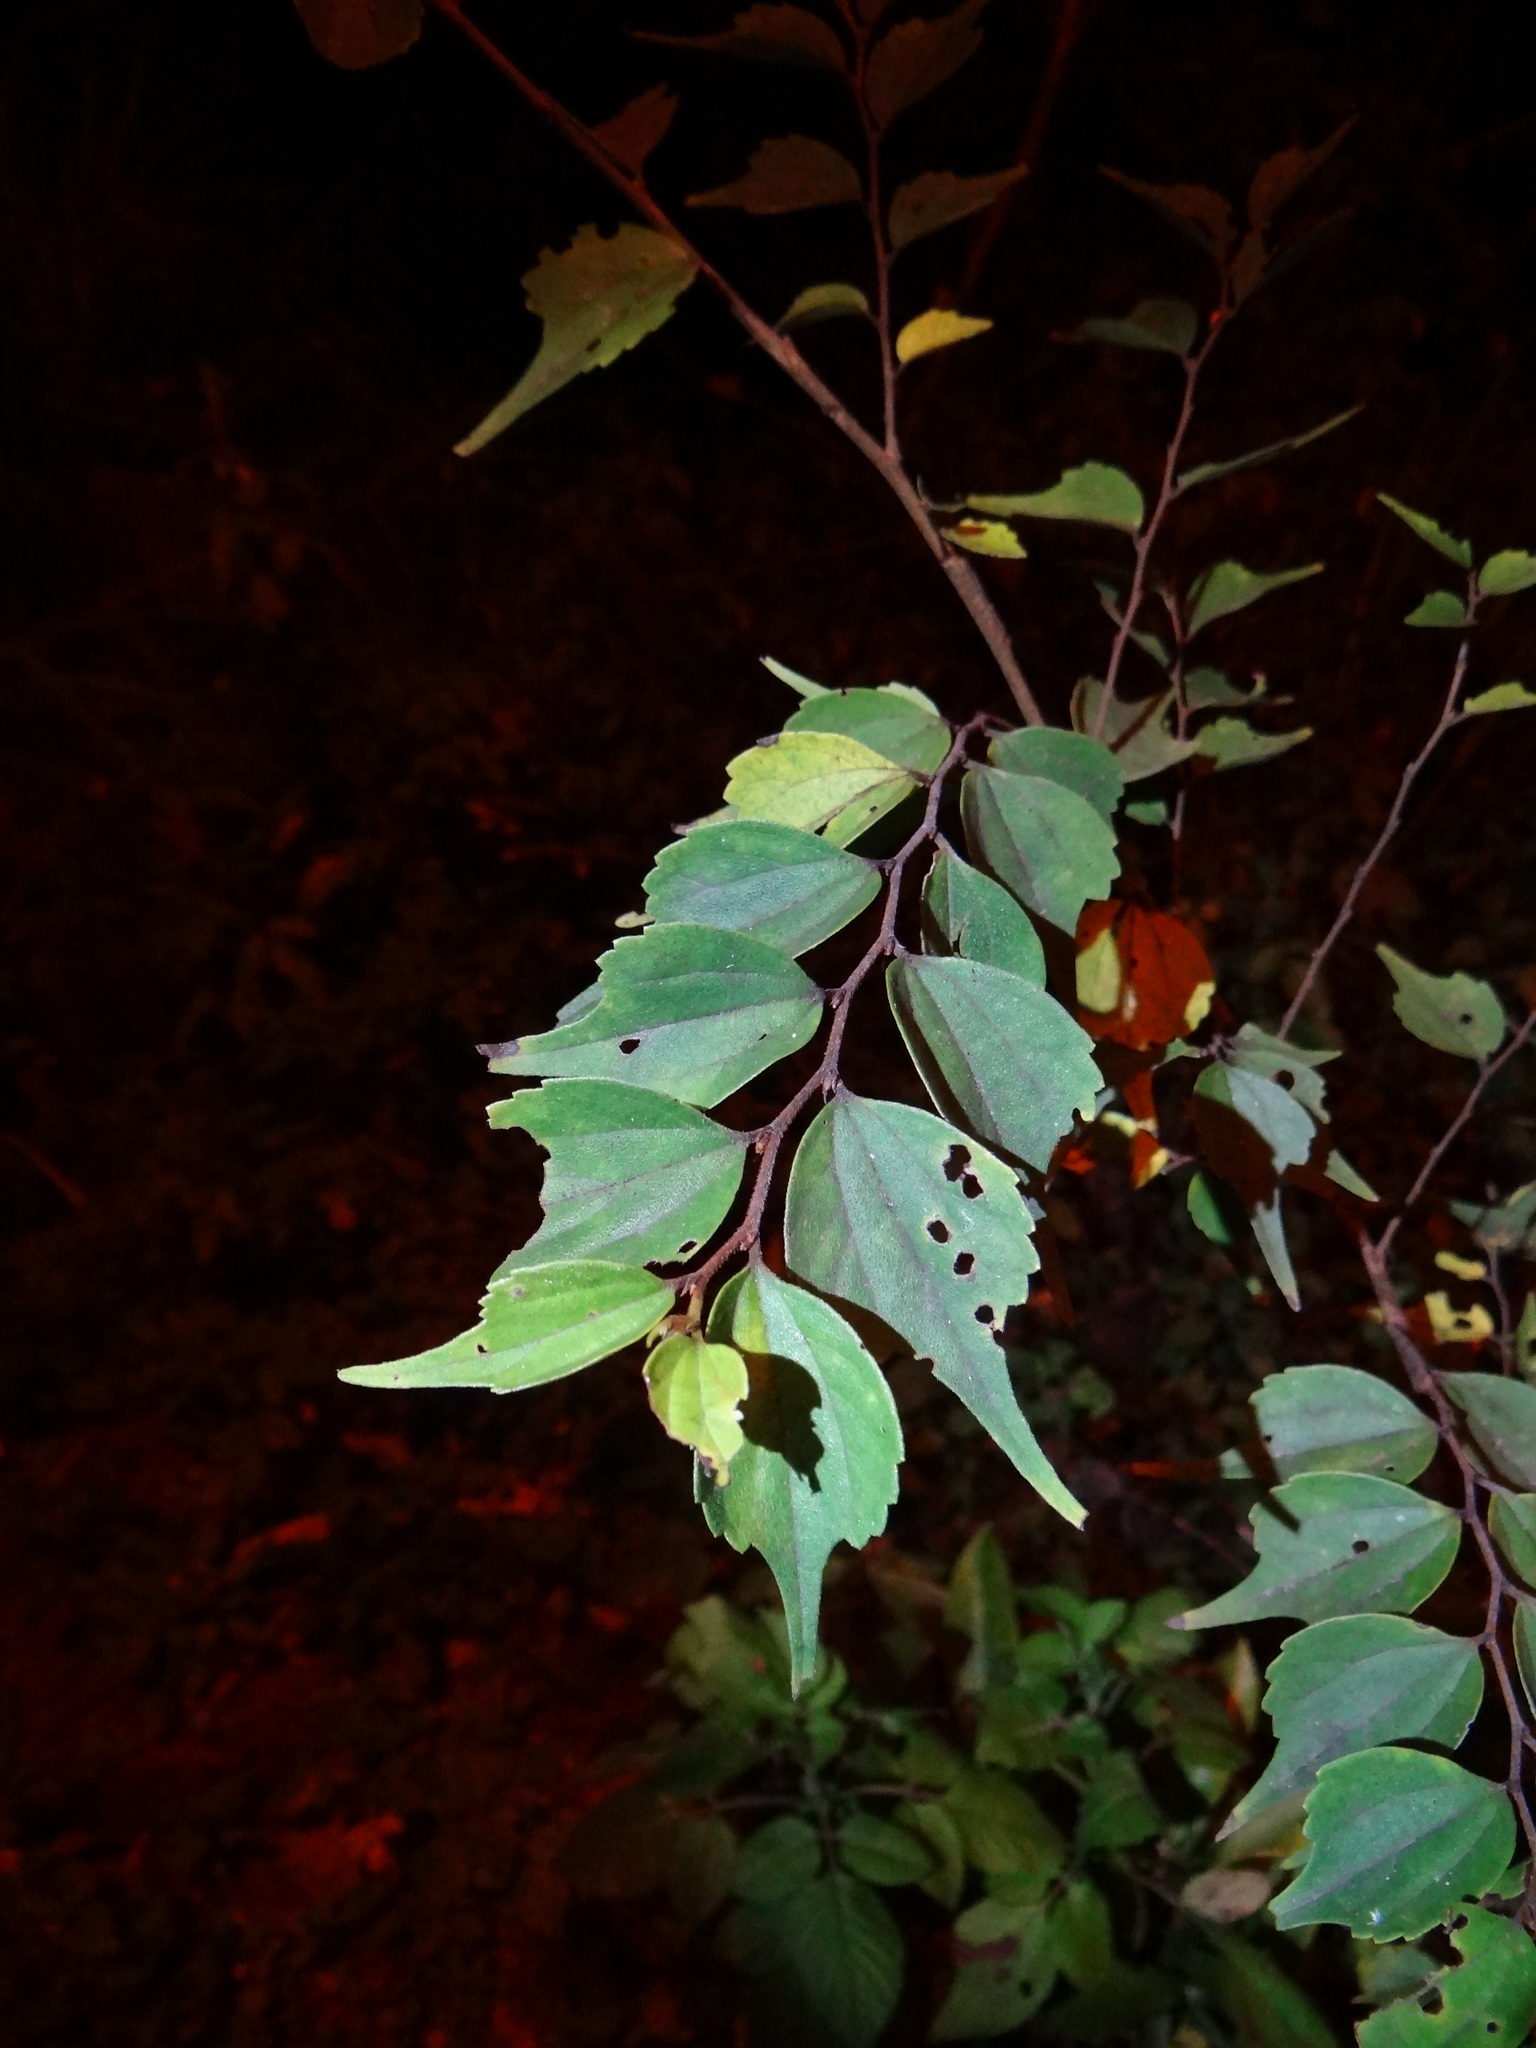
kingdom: Plantae
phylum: Tracheophyta
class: Magnoliopsida
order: Rosales
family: Cannabaceae
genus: Celtis
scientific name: Celtis biondii
